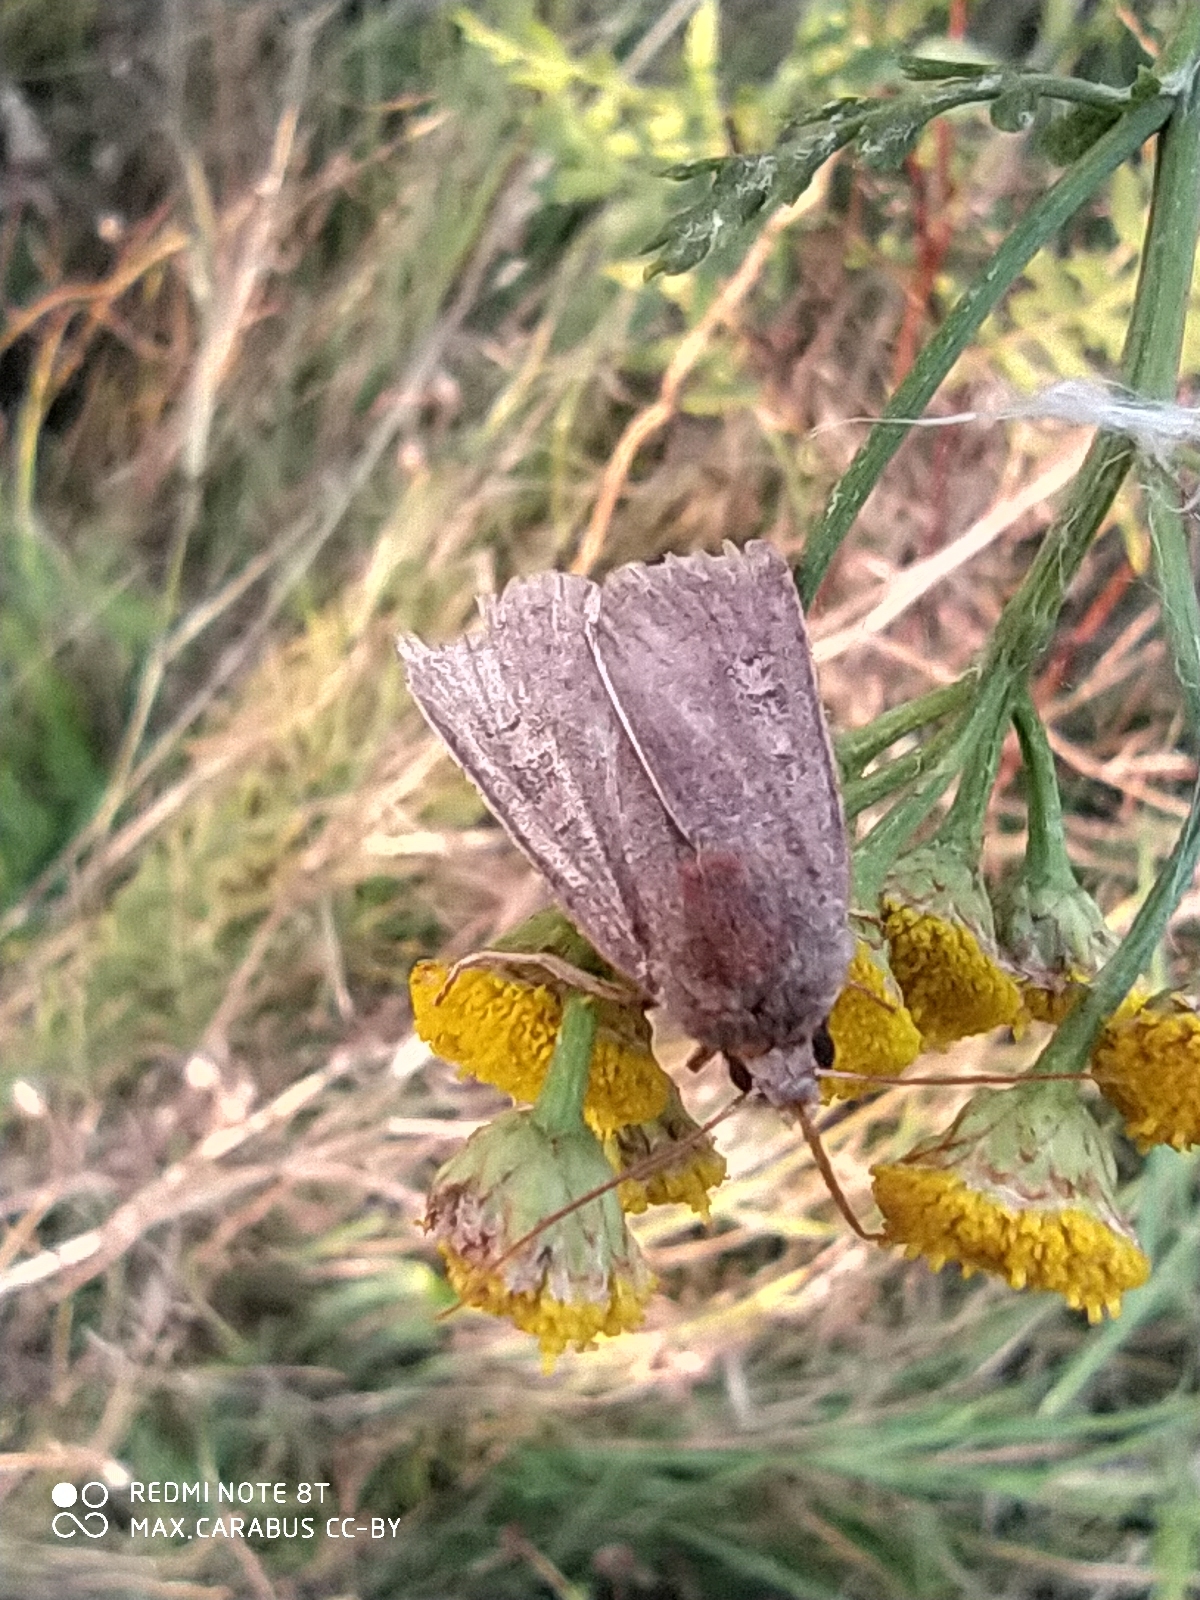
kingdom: Animalia
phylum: Arthropoda
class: Insecta
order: Lepidoptera
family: Noctuidae
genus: Xestia
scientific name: Xestia xanthographa
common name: Square-spot rustic
